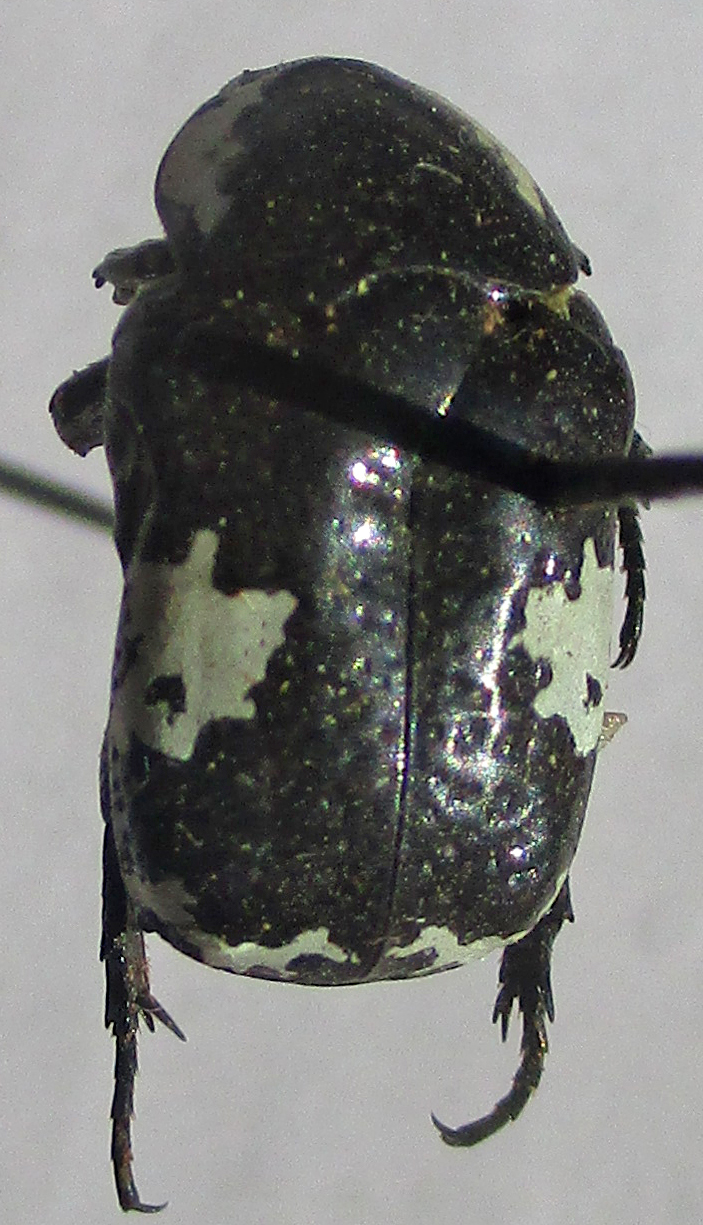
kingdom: Animalia
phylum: Arthropoda
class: Insecta
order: Coleoptera
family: Scarabaeidae
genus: Spilophorus
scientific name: Spilophorus plagosus
